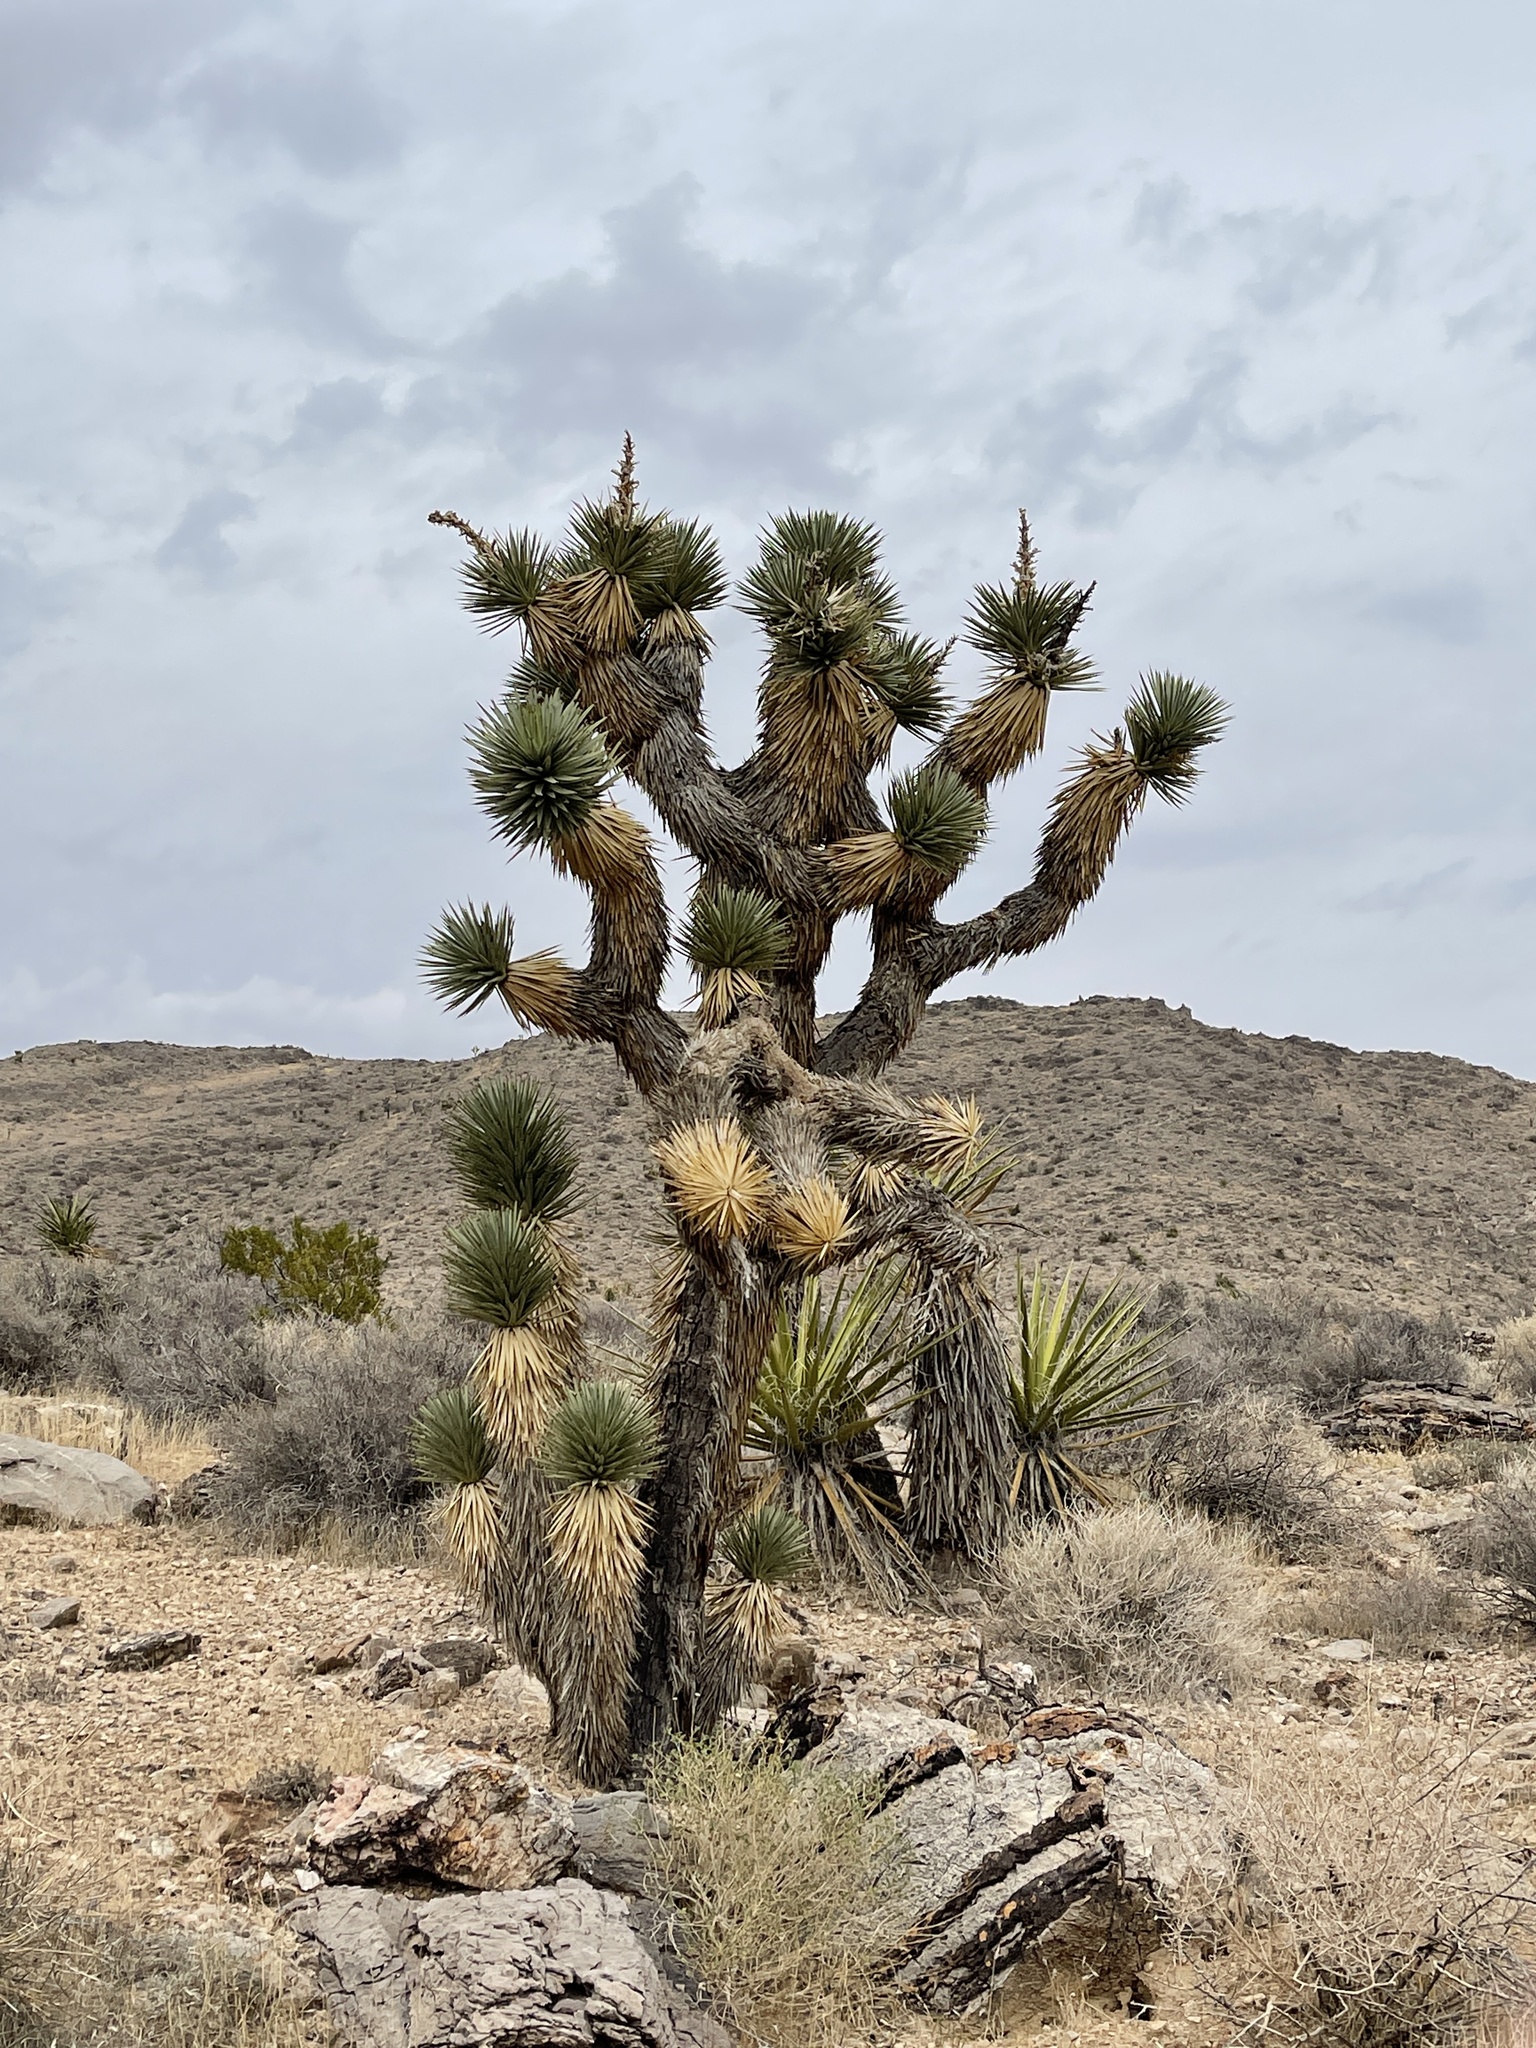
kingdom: Plantae
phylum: Tracheophyta
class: Liliopsida
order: Asparagales
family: Asparagaceae
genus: Yucca
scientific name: Yucca brevifolia
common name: Joshua tree
